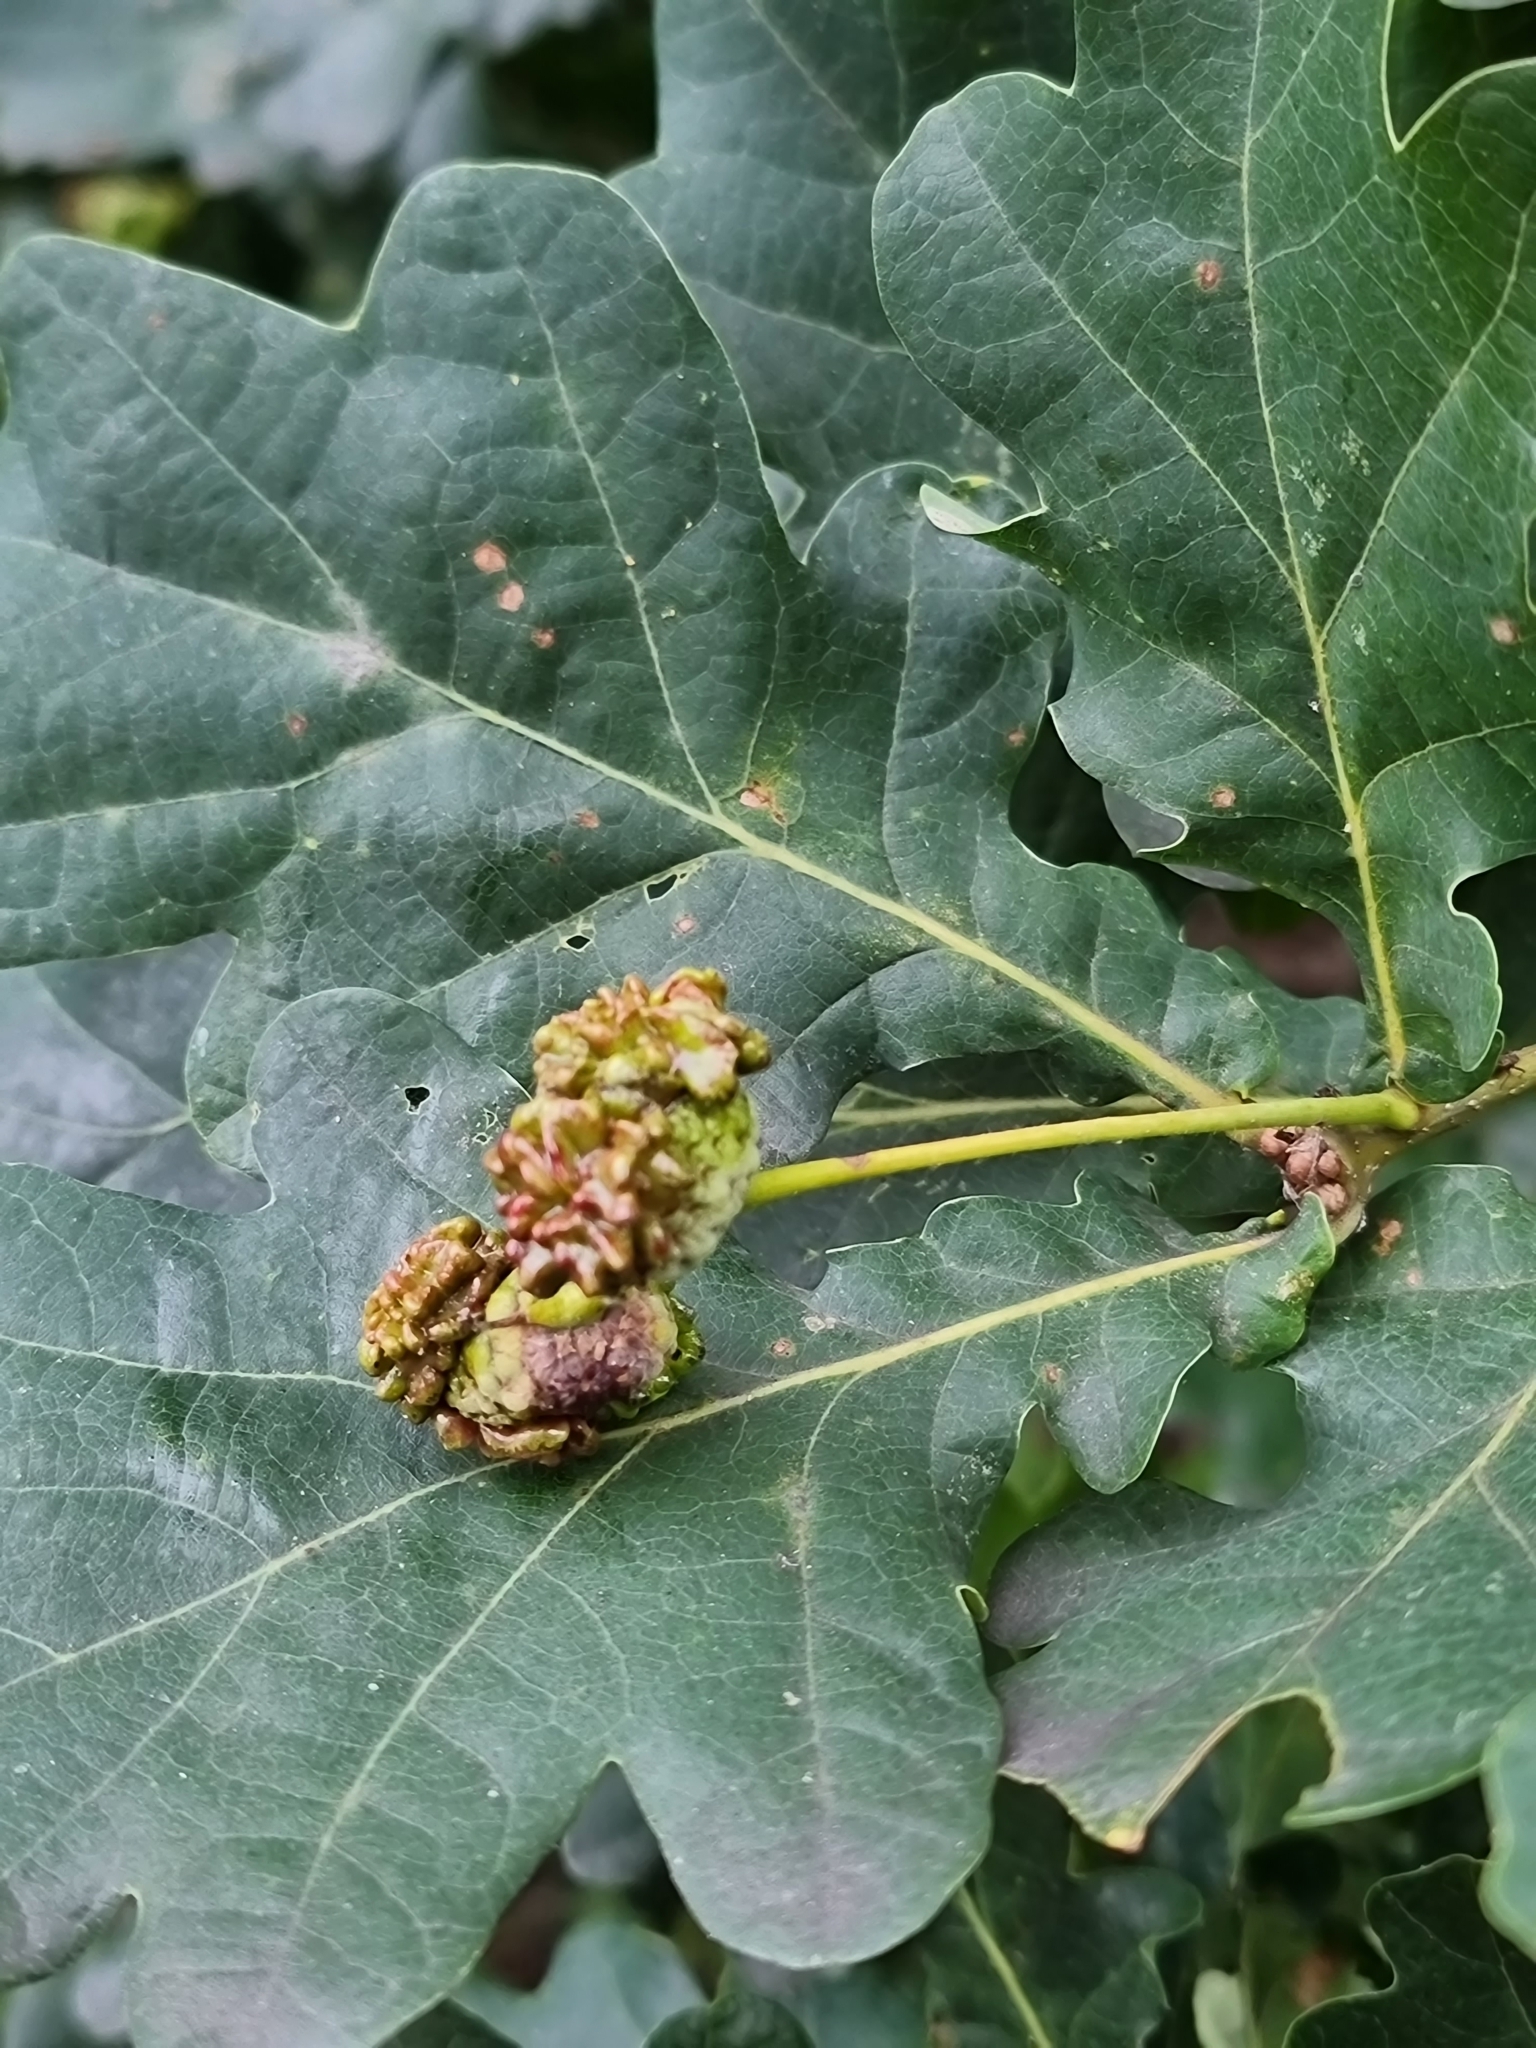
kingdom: Animalia
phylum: Arthropoda
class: Insecta
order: Hymenoptera
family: Cynipidae
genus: Andricus
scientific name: Andricus quercuscalicis
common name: Knopper gall
